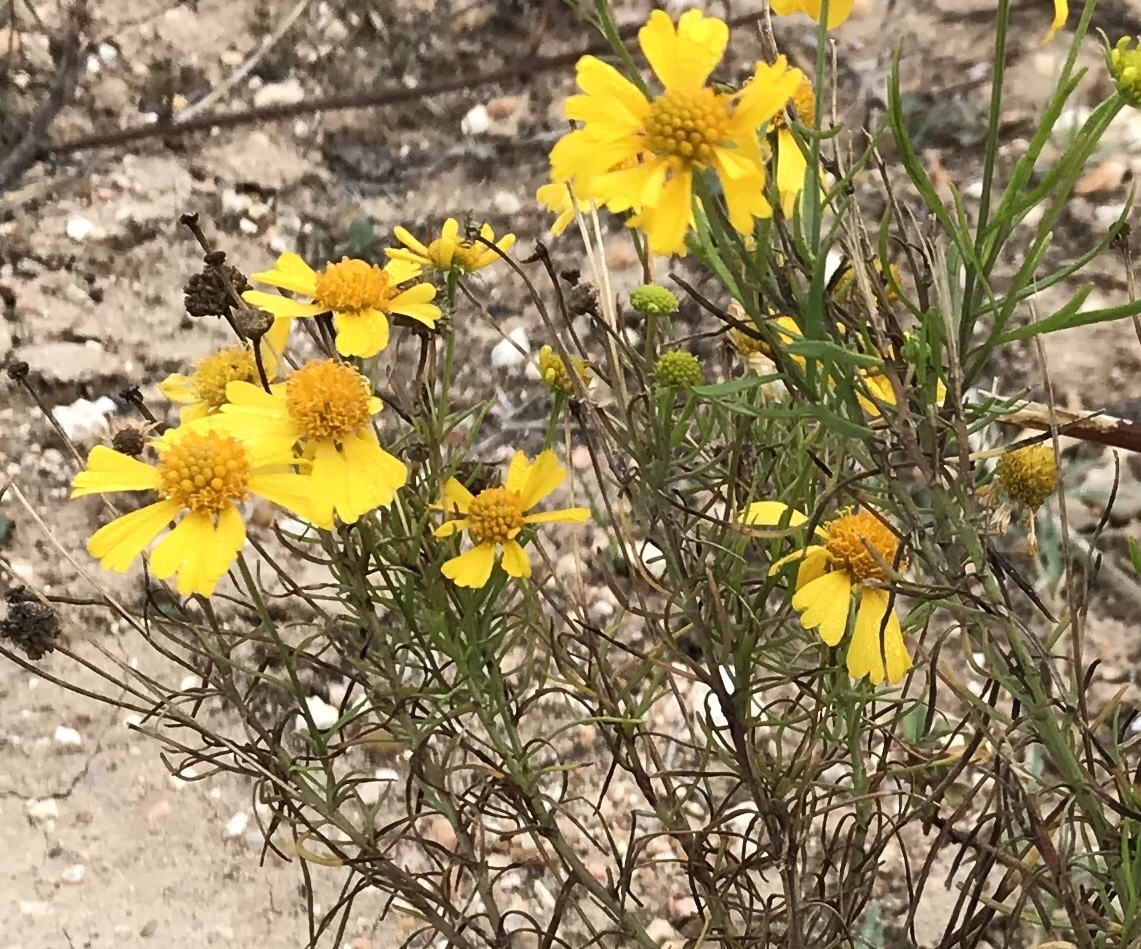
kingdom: Plantae
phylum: Tracheophyta
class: Magnoliopsida
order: Asterales
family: Asteraceae
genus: Helenium
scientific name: Helenium amarum
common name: Bitter sneezeweed
